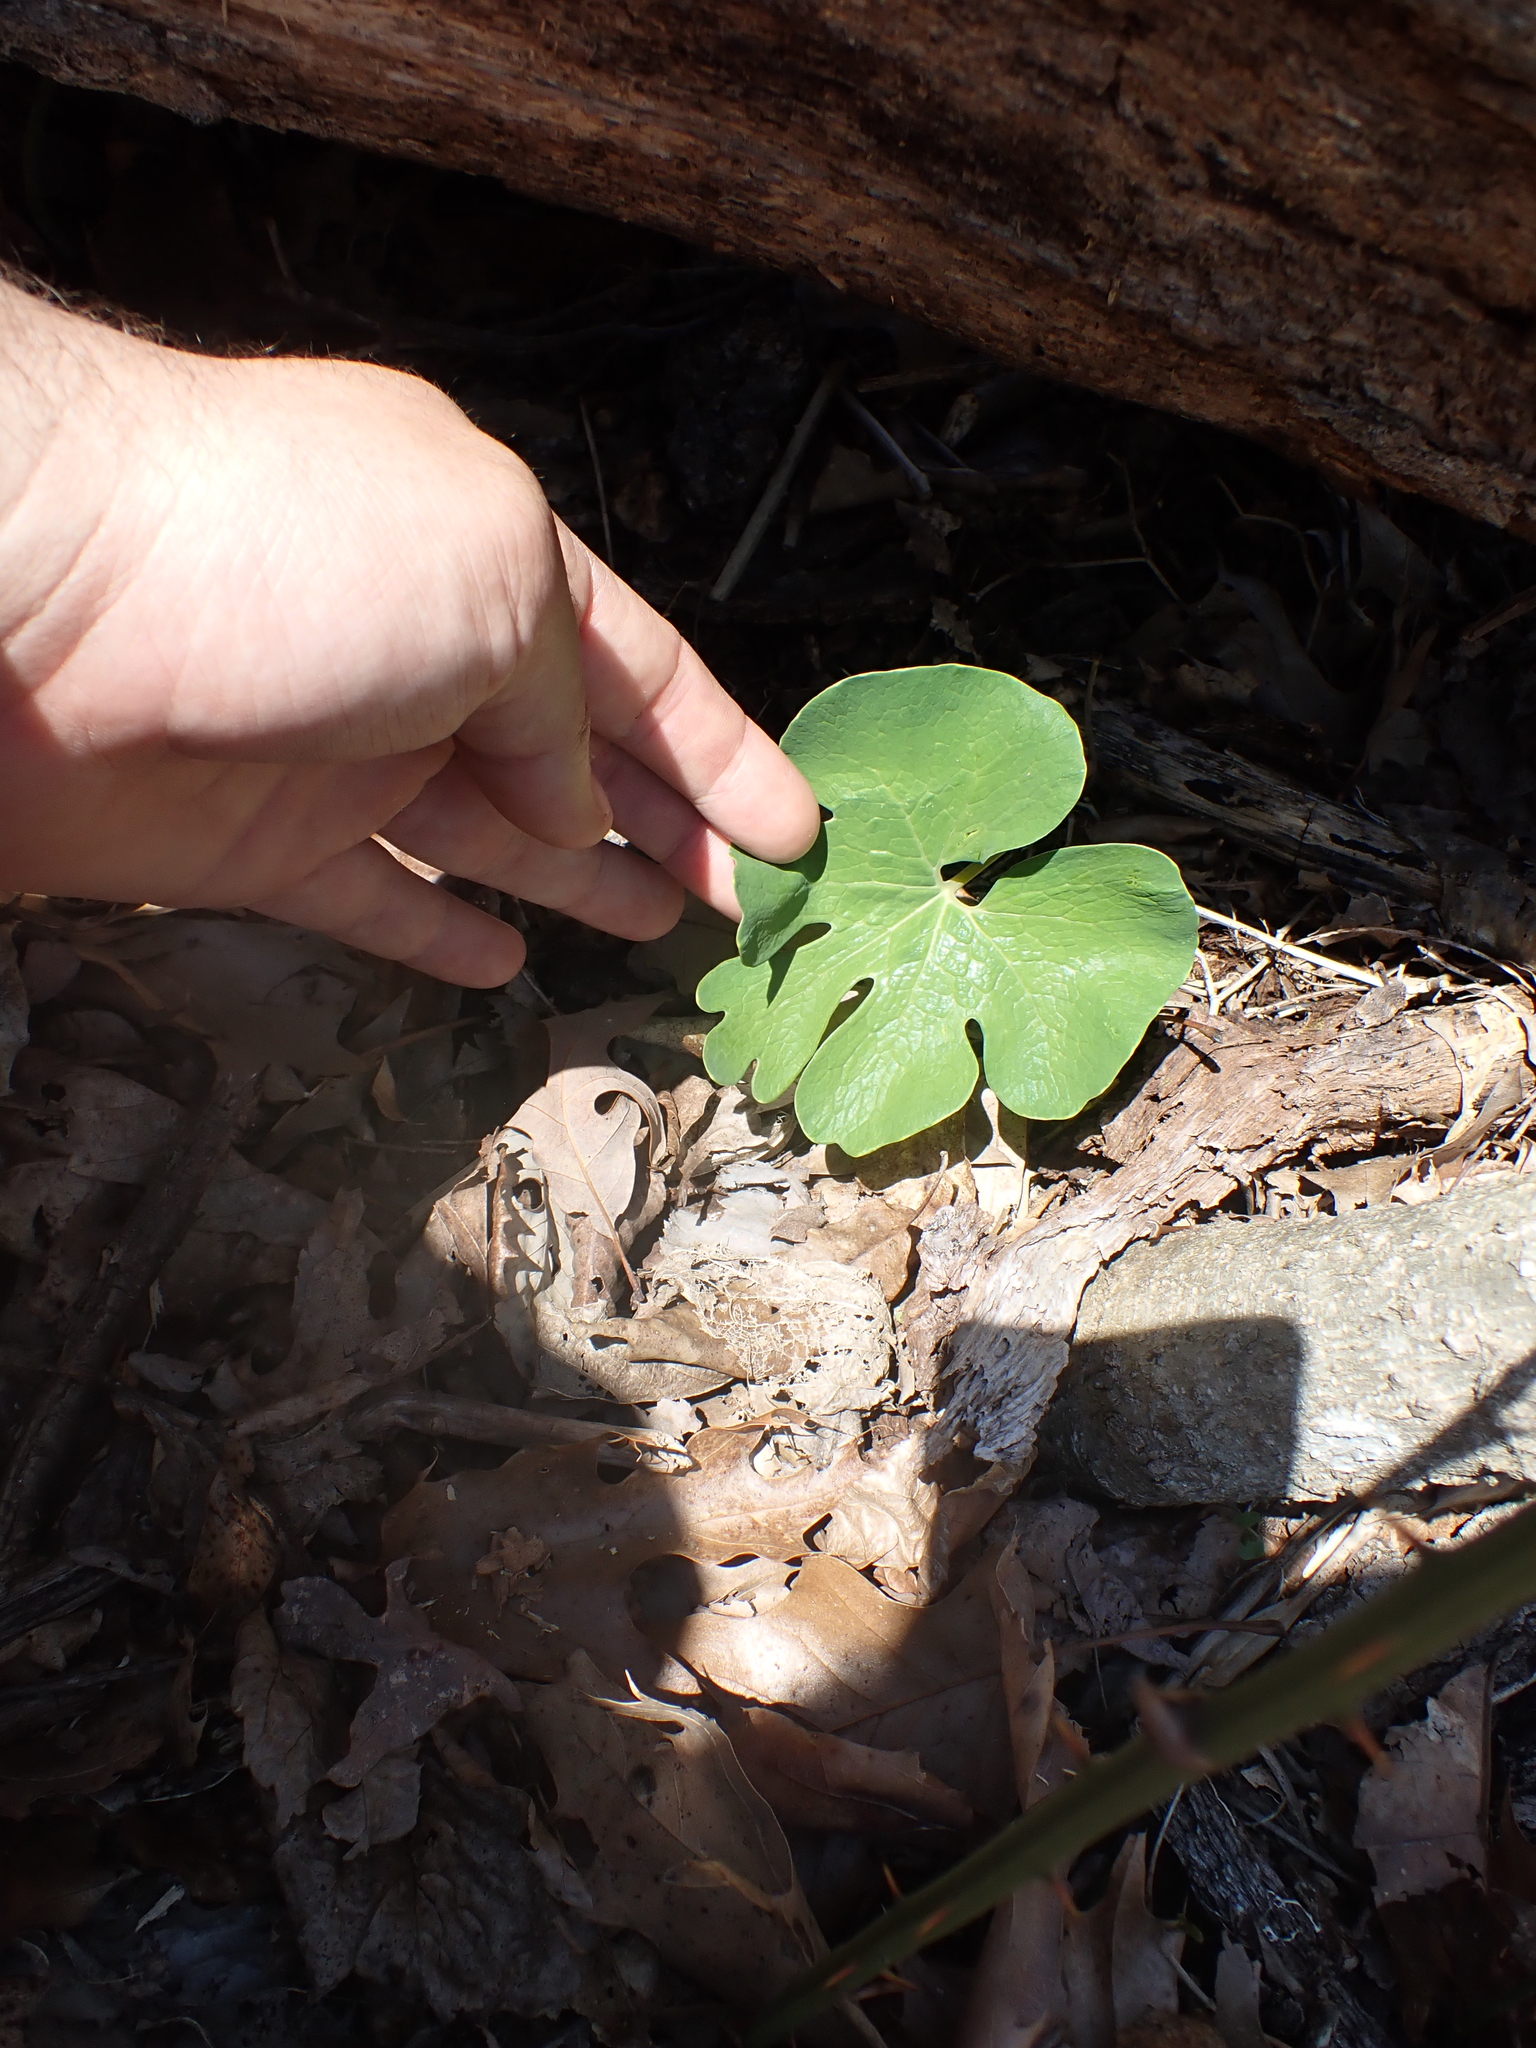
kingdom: Plantae
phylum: Tracheophyta
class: Magnoliopsida
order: Ranunculales
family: Papaveraceae
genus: Sanguinaria
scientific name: Sanguinaria canadensis
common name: Bloodroot
